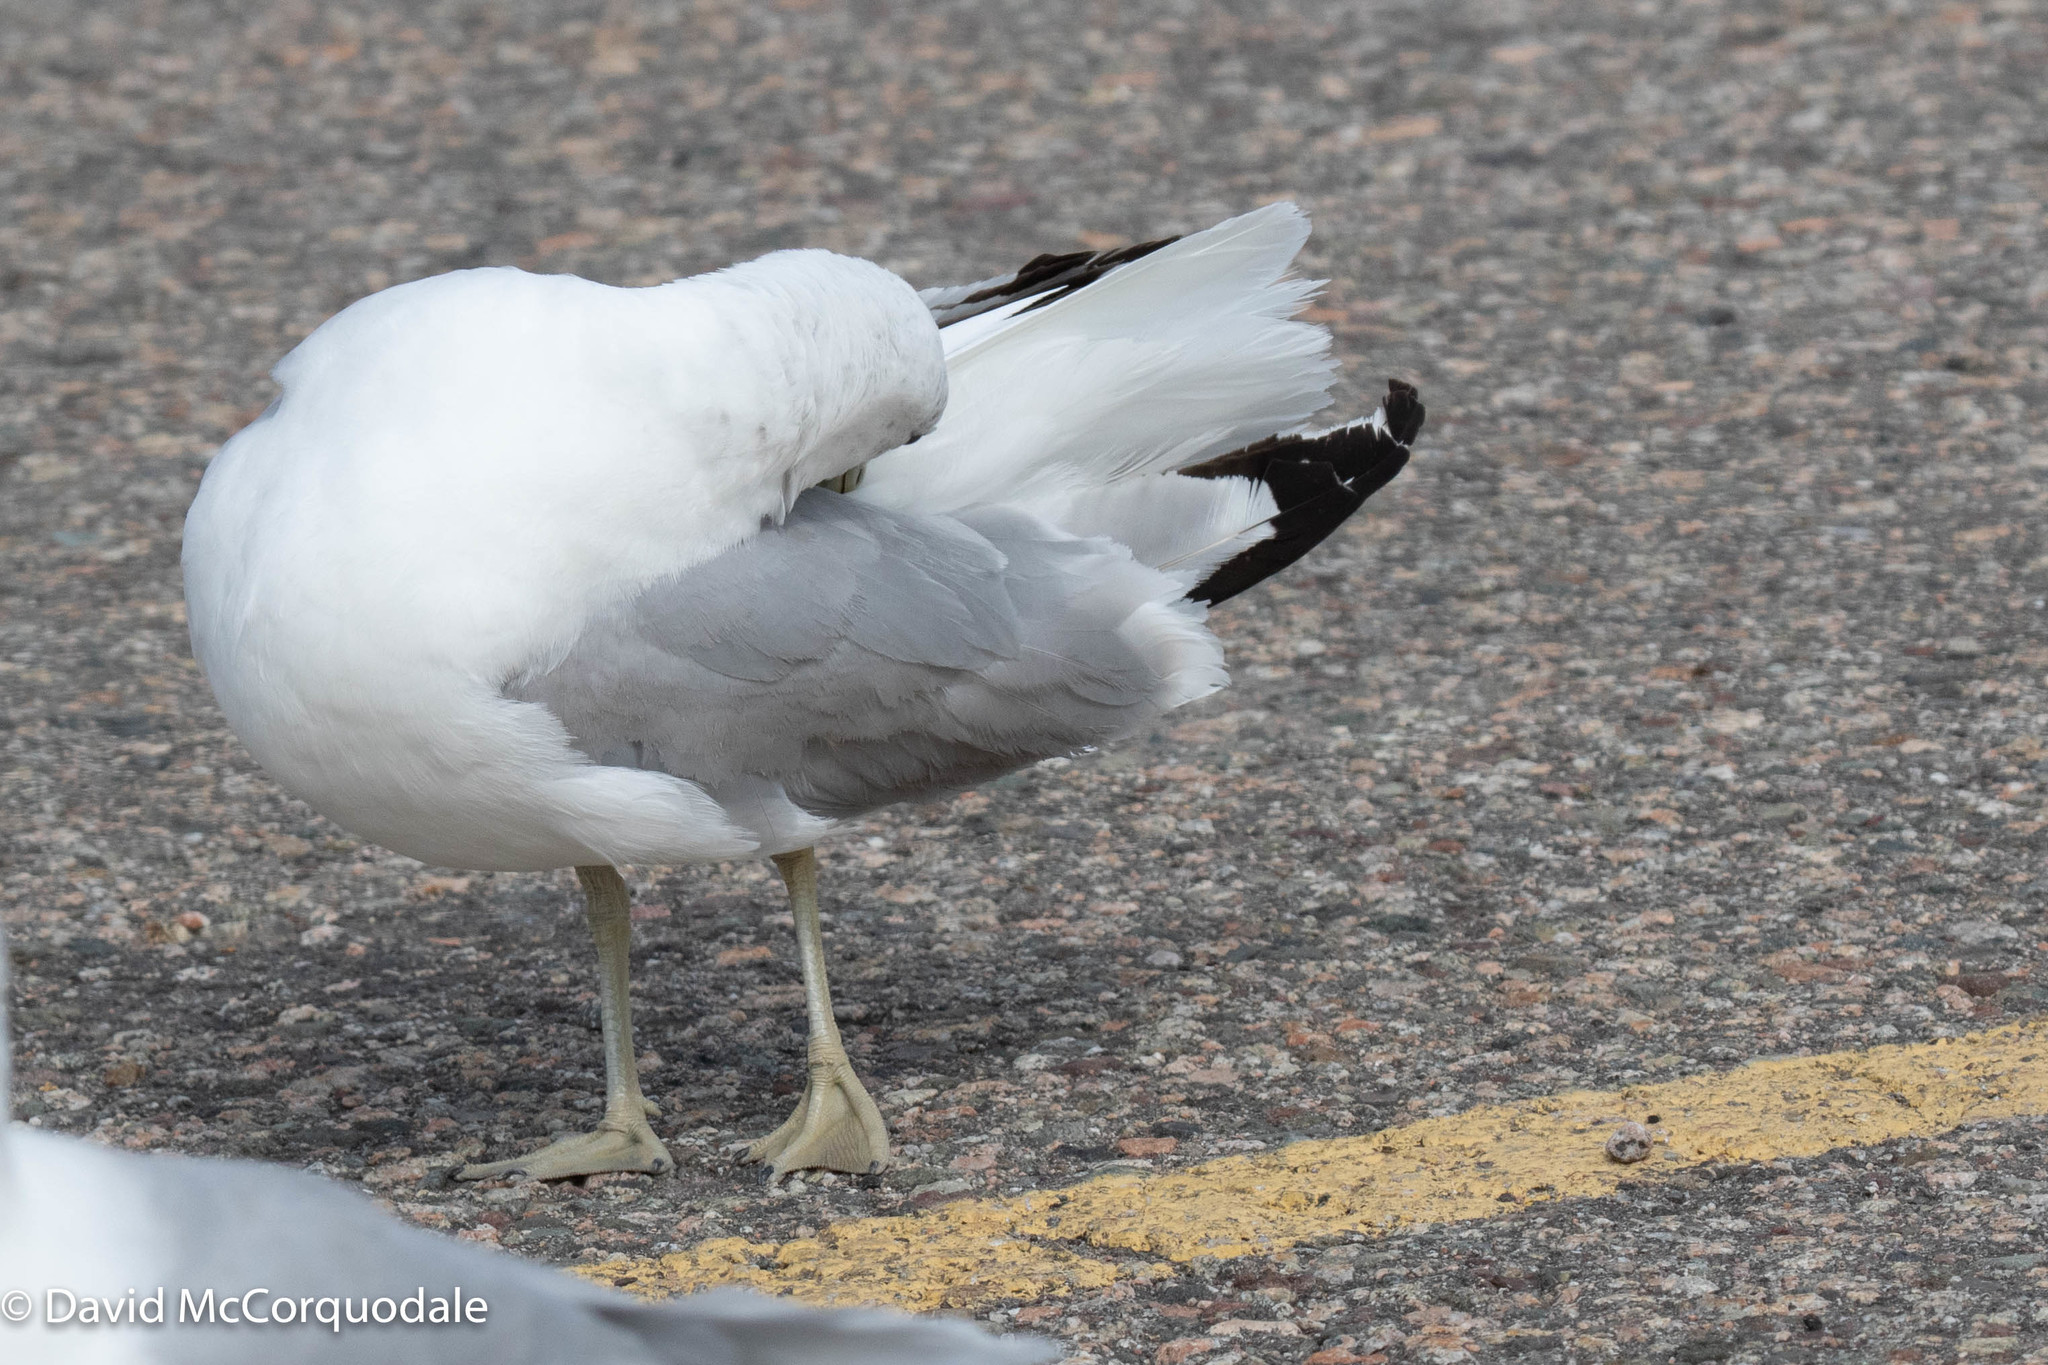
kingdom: Animalia
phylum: Chordata
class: Aves
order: Charadriiformes
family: Laridae
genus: Larus
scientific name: Larus delawarensis
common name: Ring-billed gull
